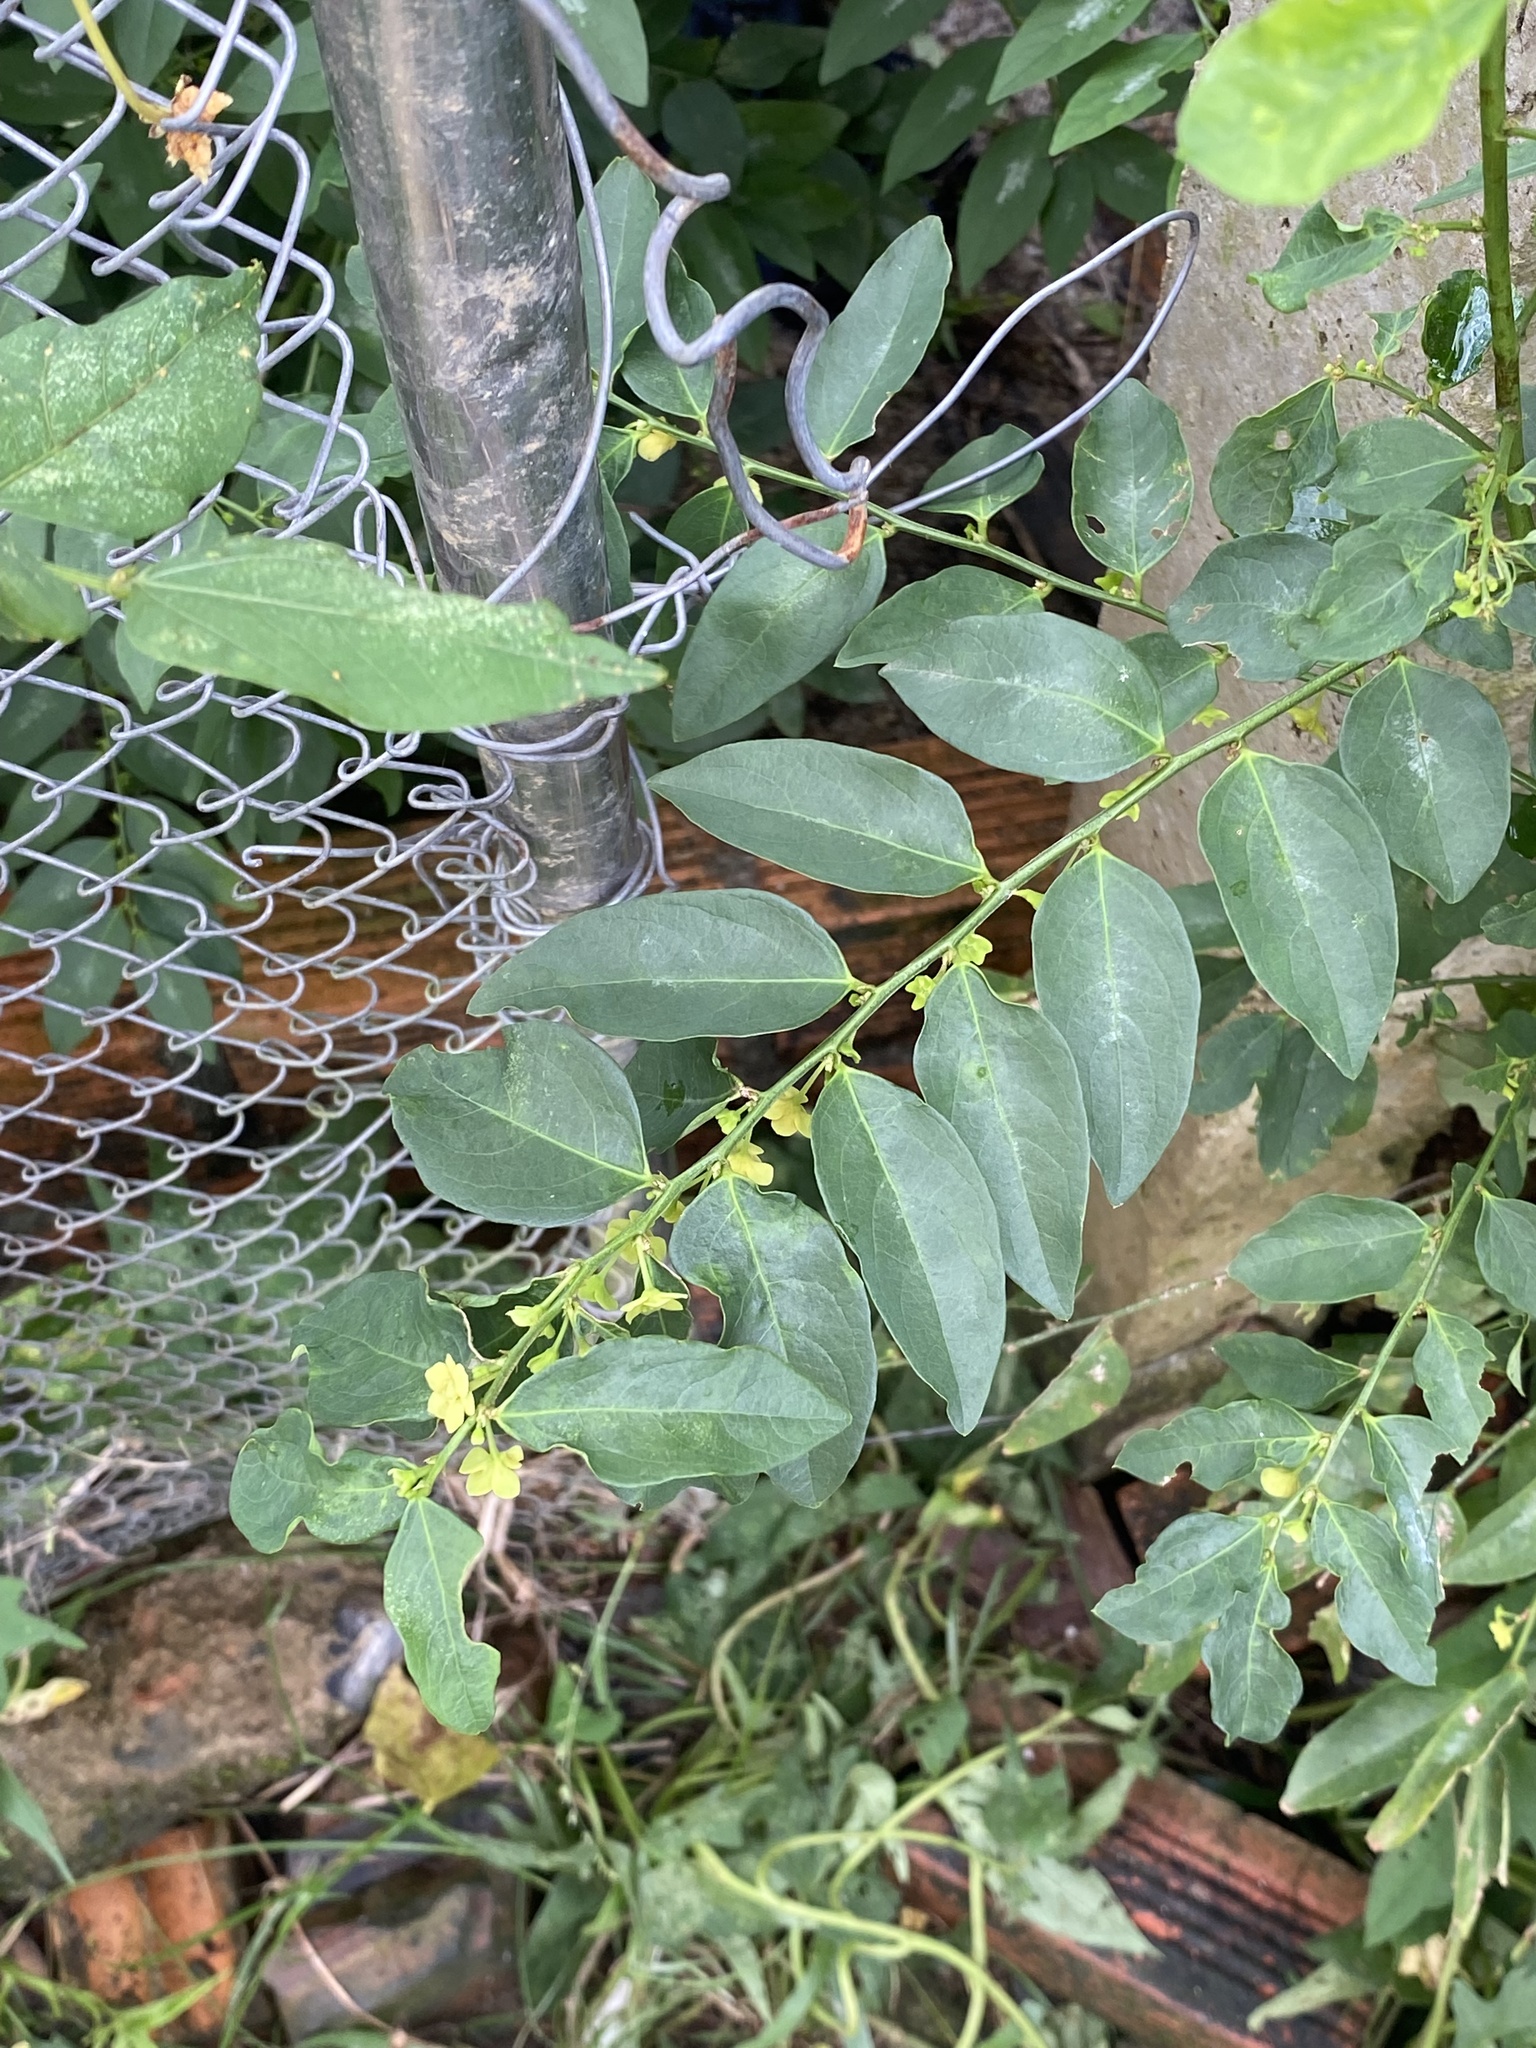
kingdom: Plantae
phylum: Tracheophyta
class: Magnoliopsida
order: Malpighiales
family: Phyllanthaceae
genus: Breynia
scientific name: Breynia androgyna
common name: Star gooseberry
